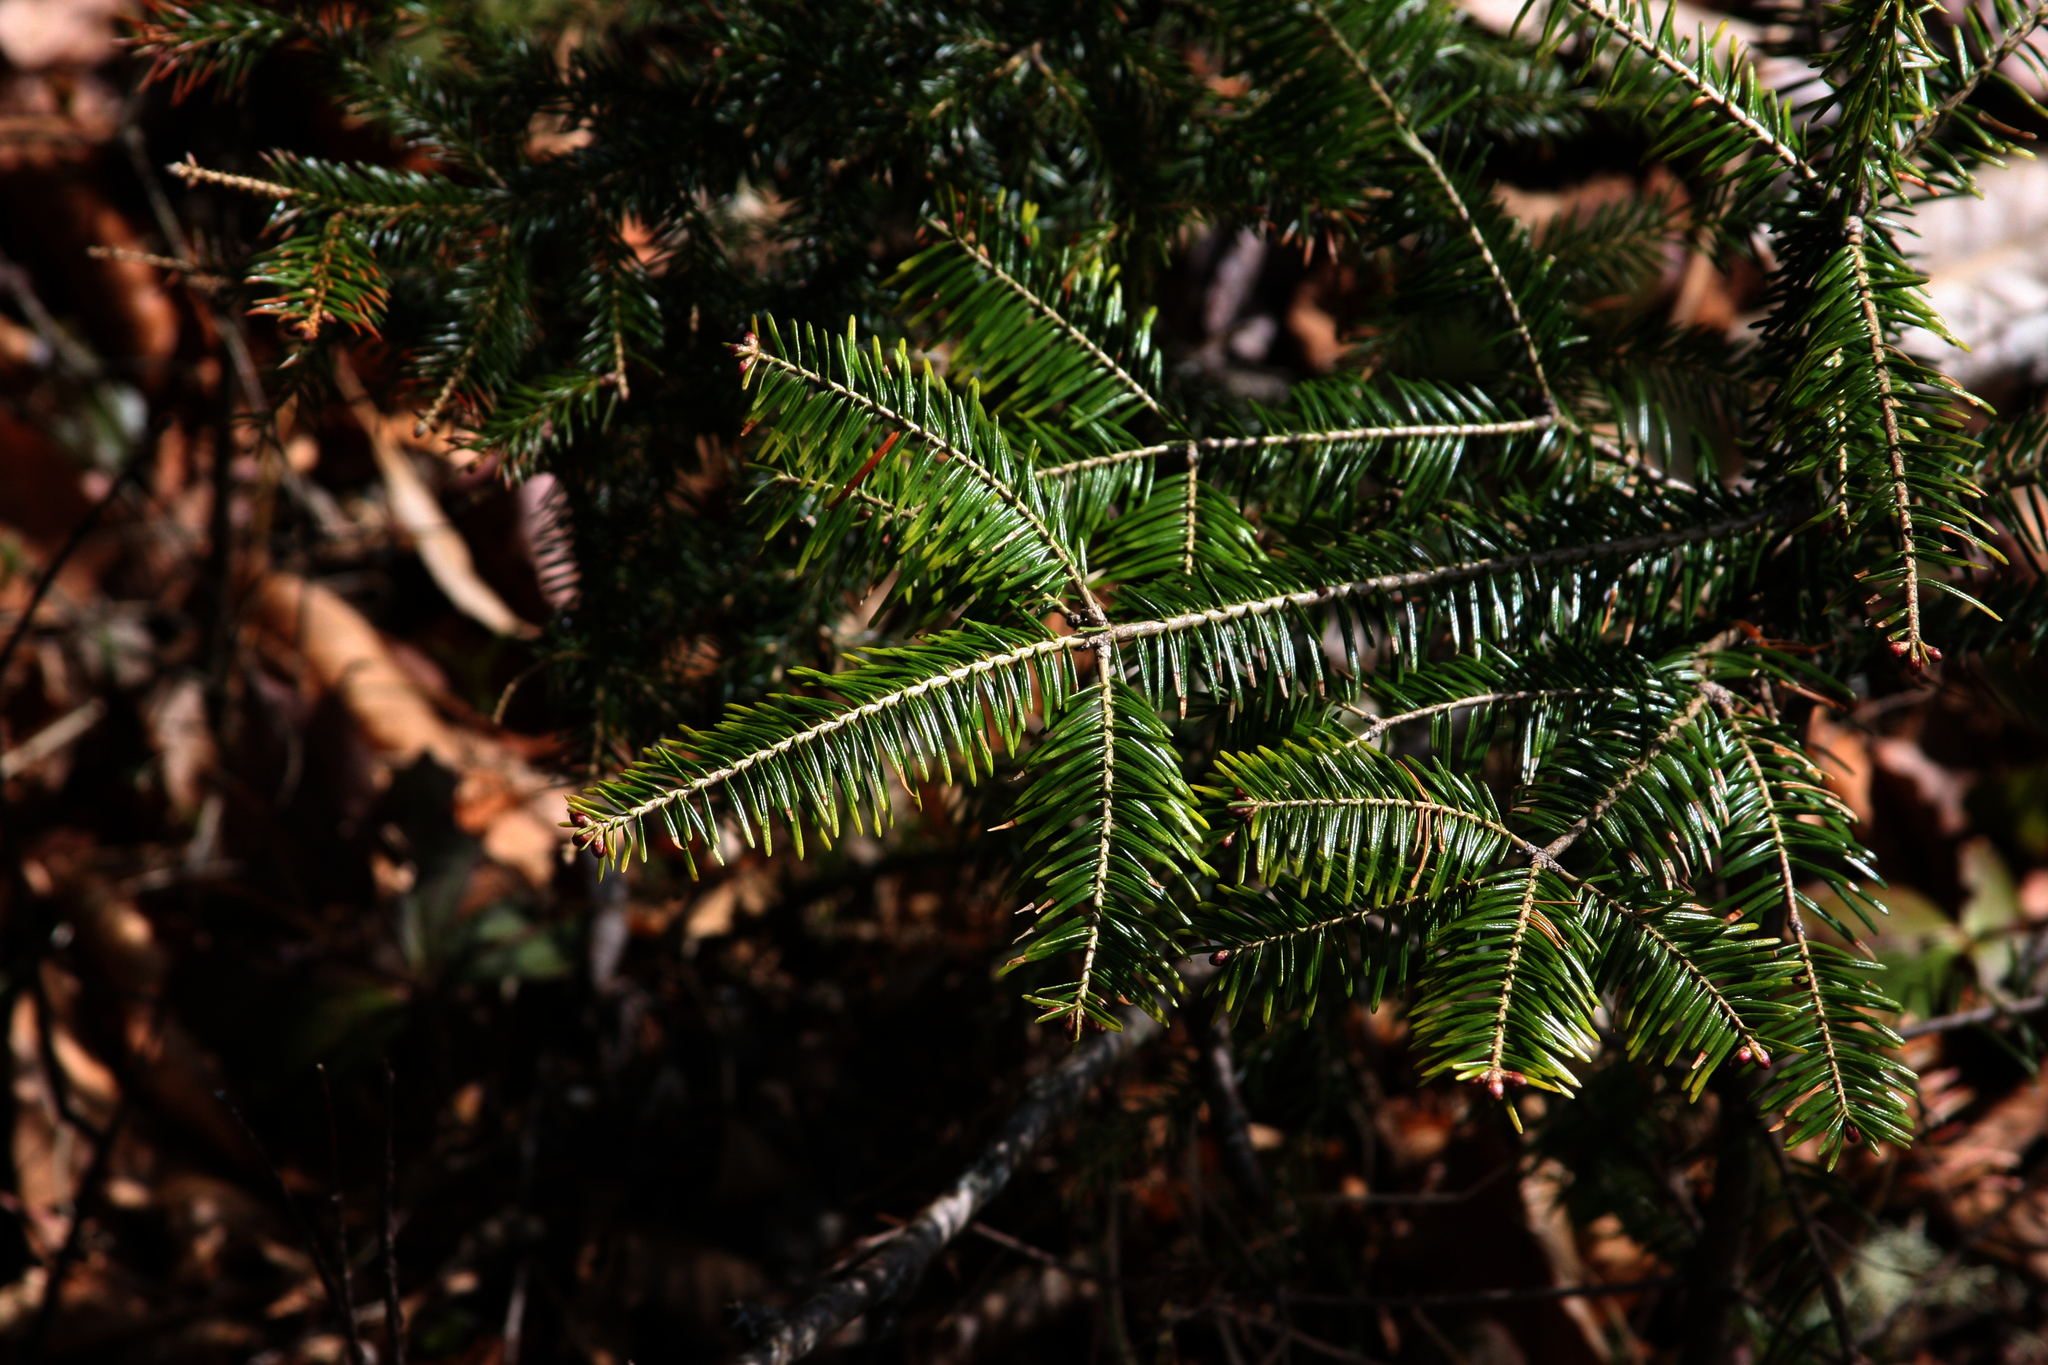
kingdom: Plantae
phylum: Tracheophyta
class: Pinopsida
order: Pinales
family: Pinaceae
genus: Abies
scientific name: Abies balsamea
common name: Balsam fir
